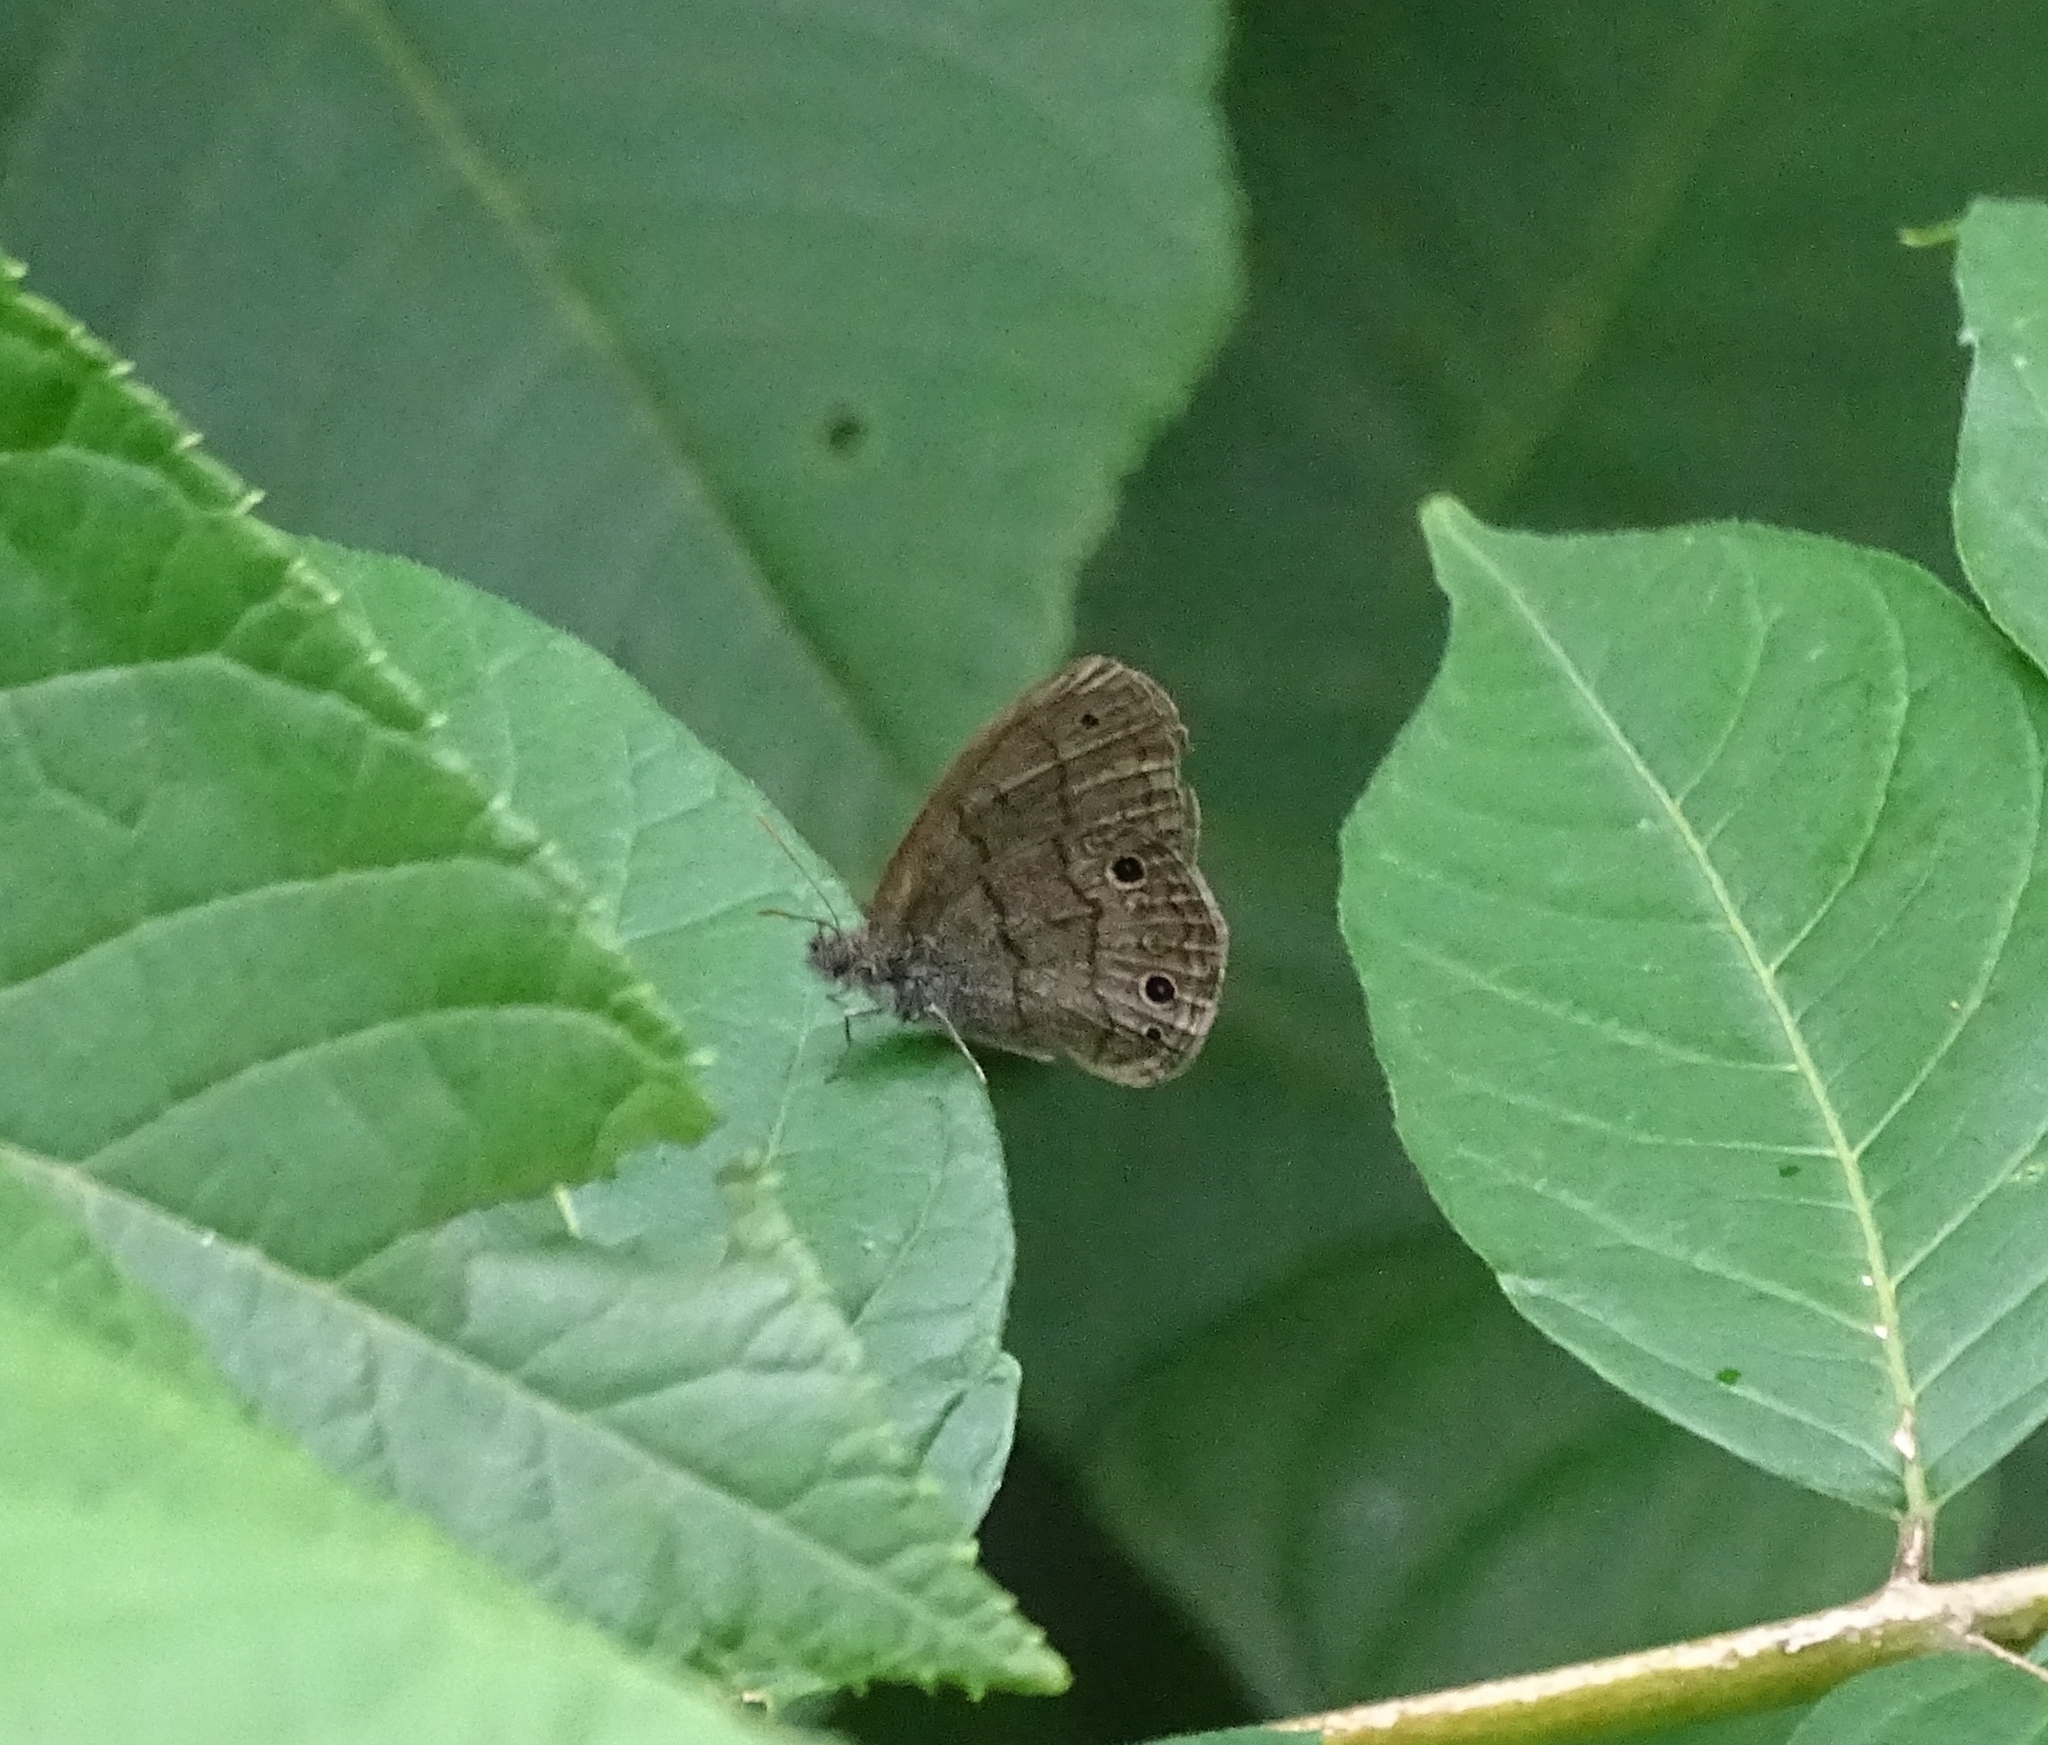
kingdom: Animalia
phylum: Arthropoda
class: Insecta
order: Lepidoptera
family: Nymphalidae
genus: Hermeuptychia
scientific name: Hermeuptychia hermes
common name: Hermes satyr
